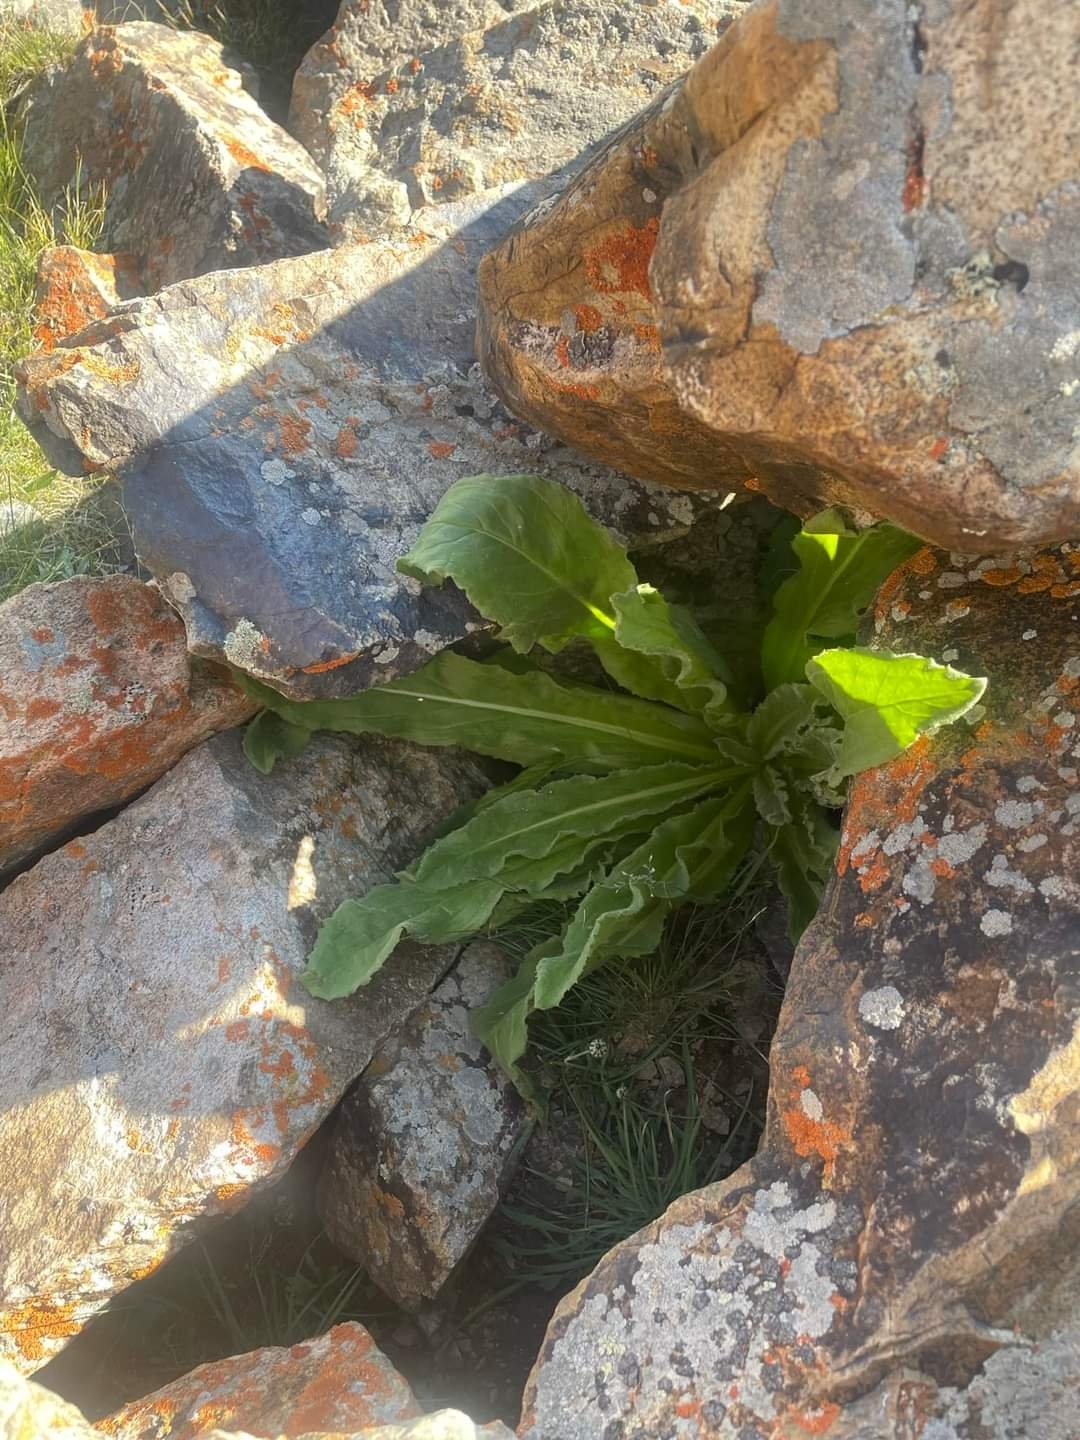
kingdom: Plantae
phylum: Tracheophyta
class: Magnoliopsida
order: Asterales
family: Asteraceae
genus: Saussurea
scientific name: Saussurea involucrata
